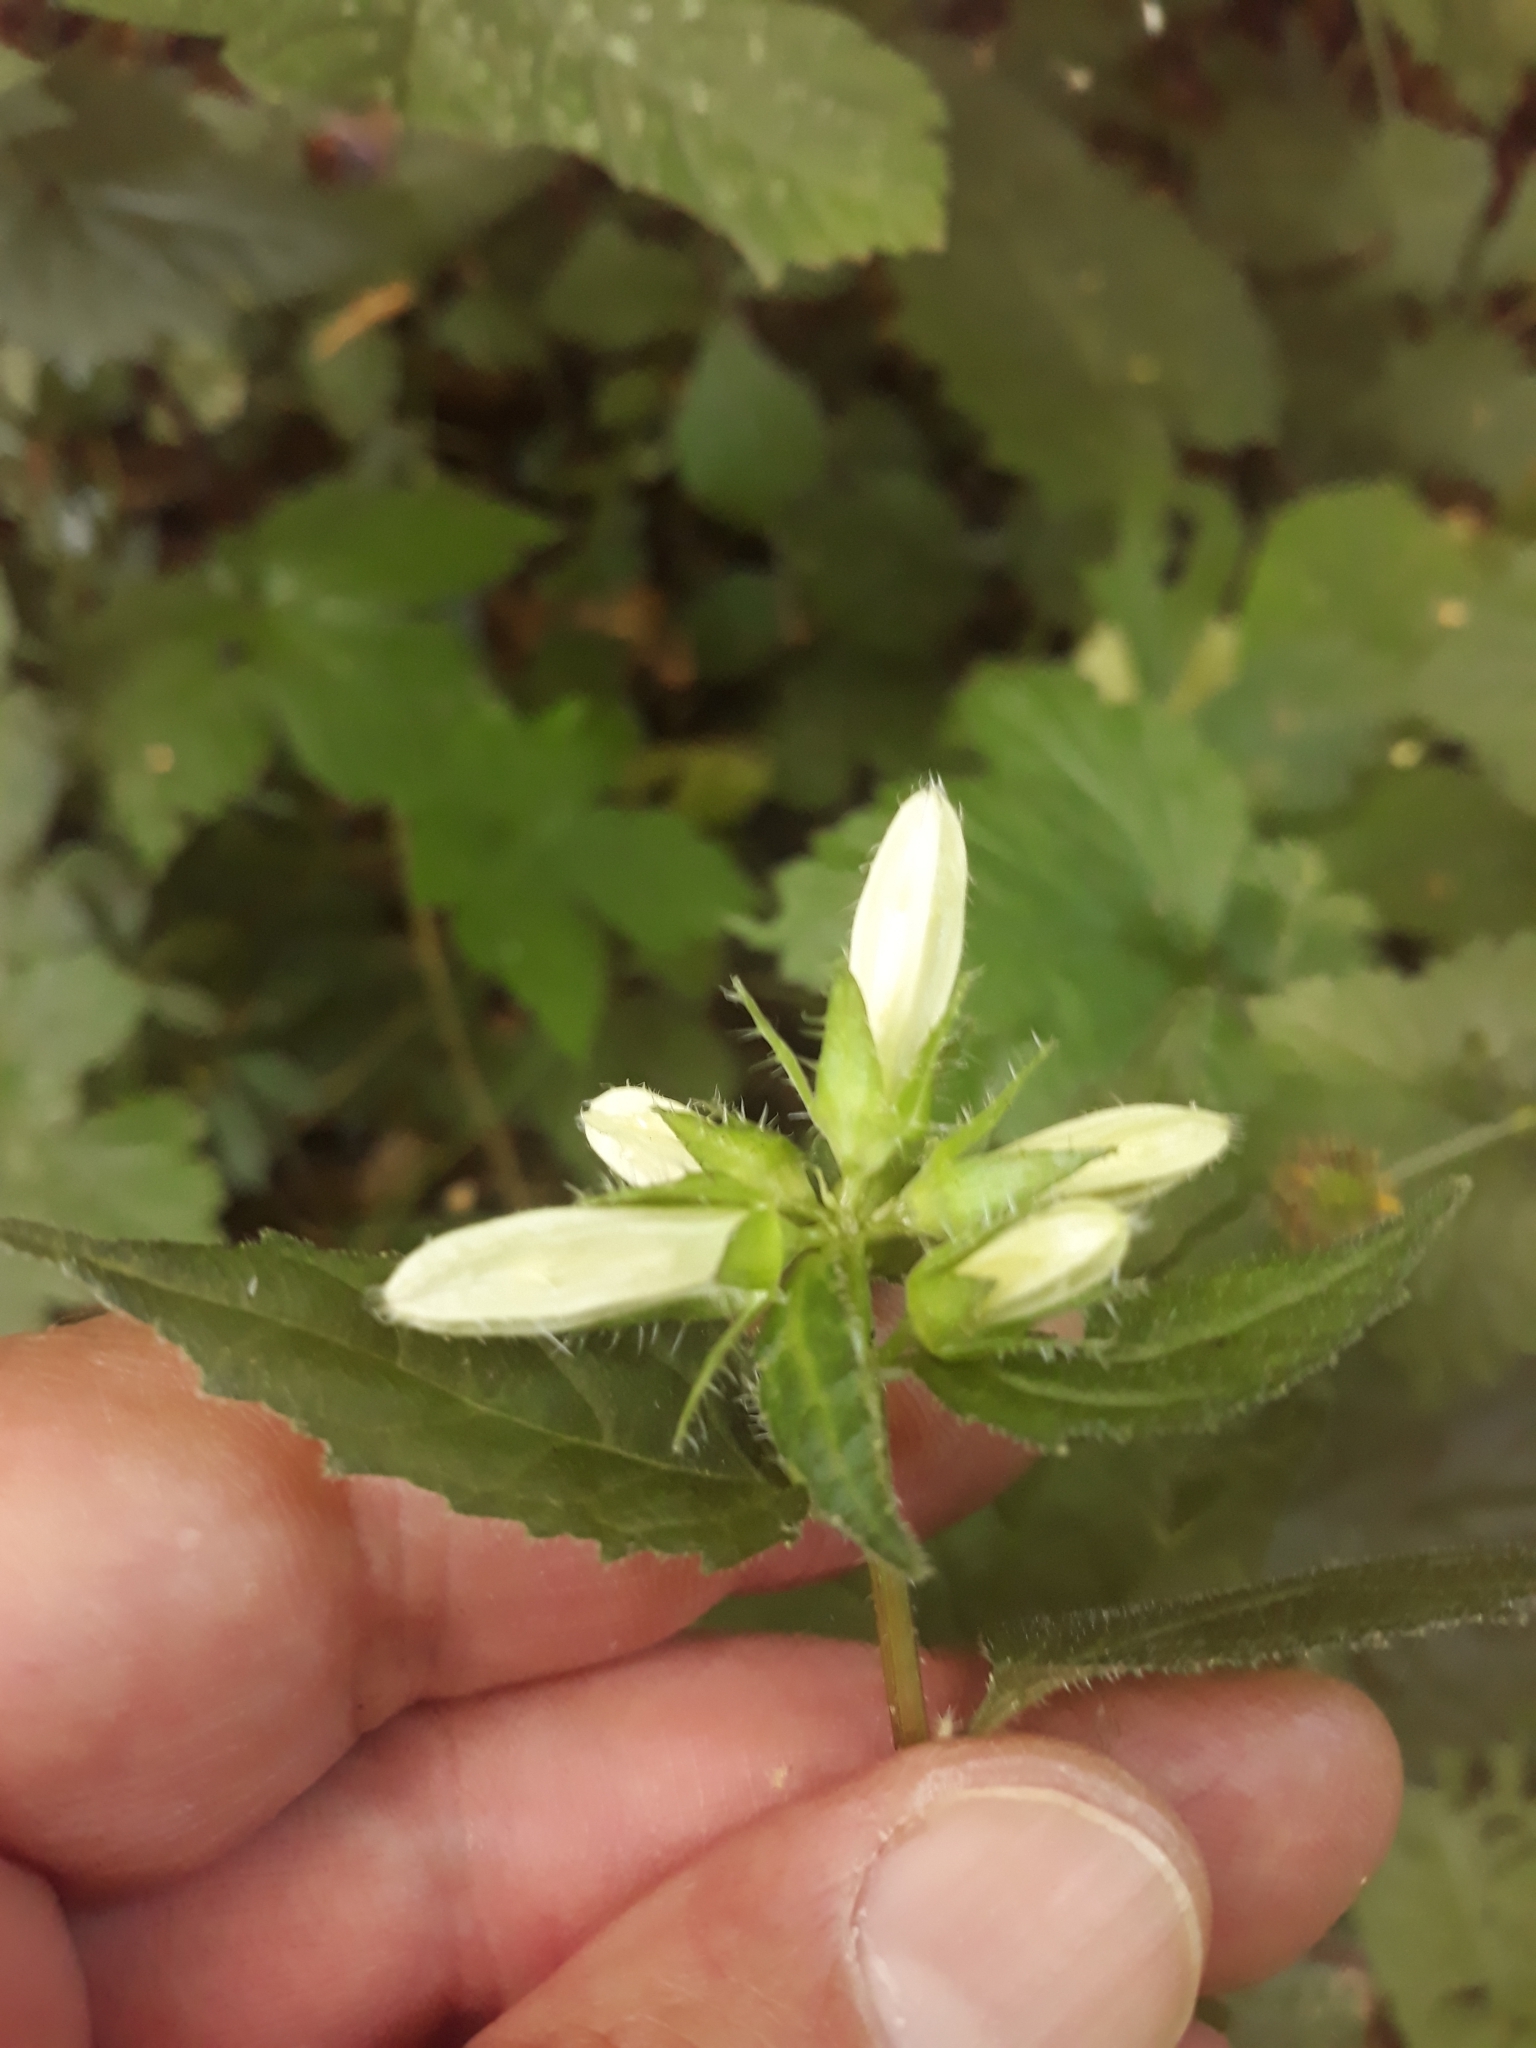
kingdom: Plantae
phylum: Tracheophyta
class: Magnoliopsida
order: Asterales
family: Campanulaceae
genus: Campanula
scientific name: Campanula trachelium
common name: Nettle-leaved bellflower
